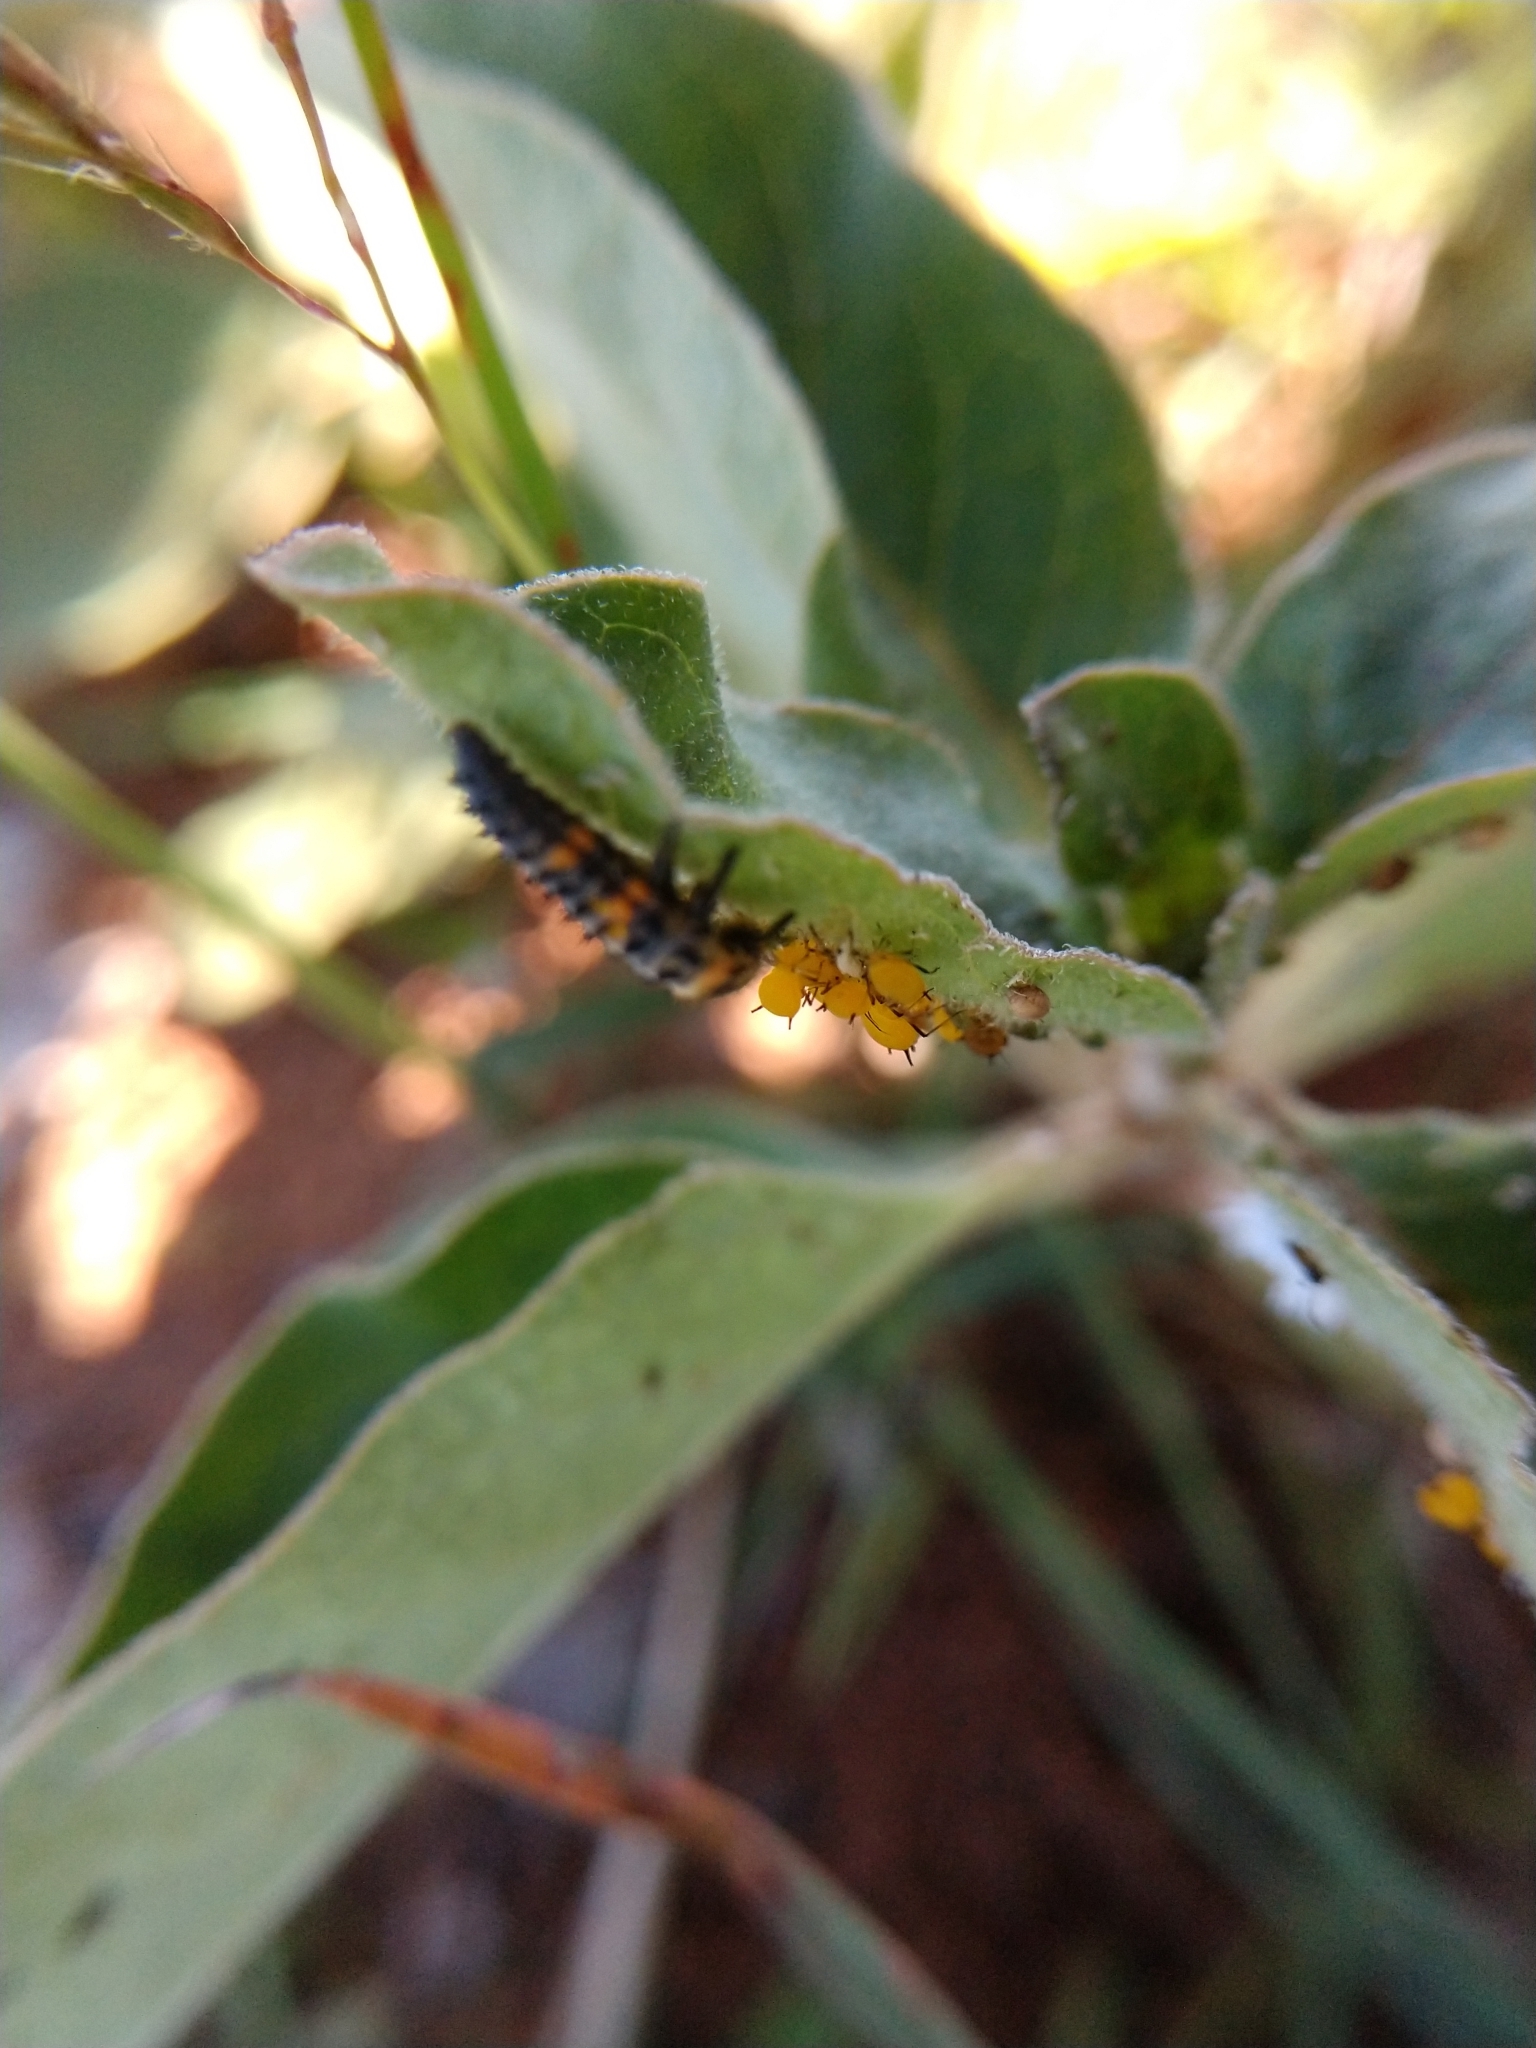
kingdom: Animalia
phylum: Arthropoda
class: Insecta
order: Hemiptera
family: Aphididae
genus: Aphis
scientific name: Aphis nerii
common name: Oleander aphid
